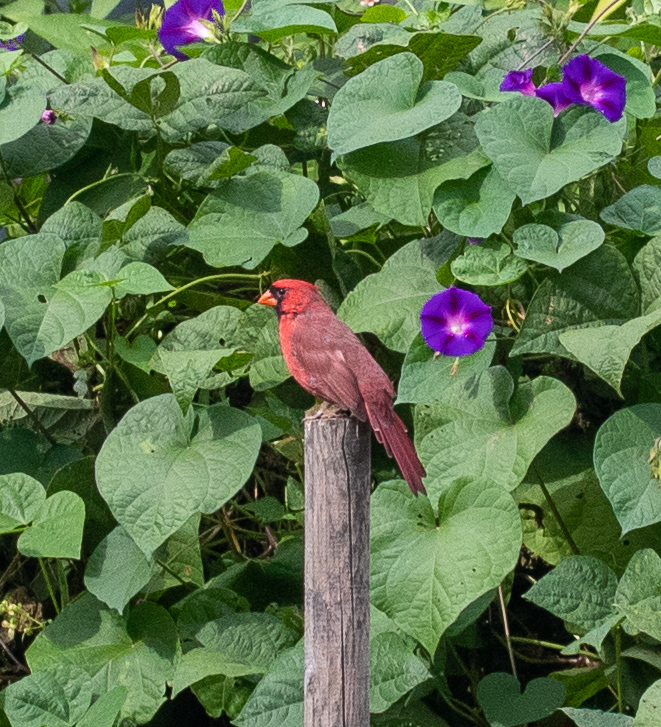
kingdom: Animalia
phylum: Chordata
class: Aves
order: Passeriformes
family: Cardinalidae
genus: Cardinalis
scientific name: Cardinalis cardinalis
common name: Northern cardinal
